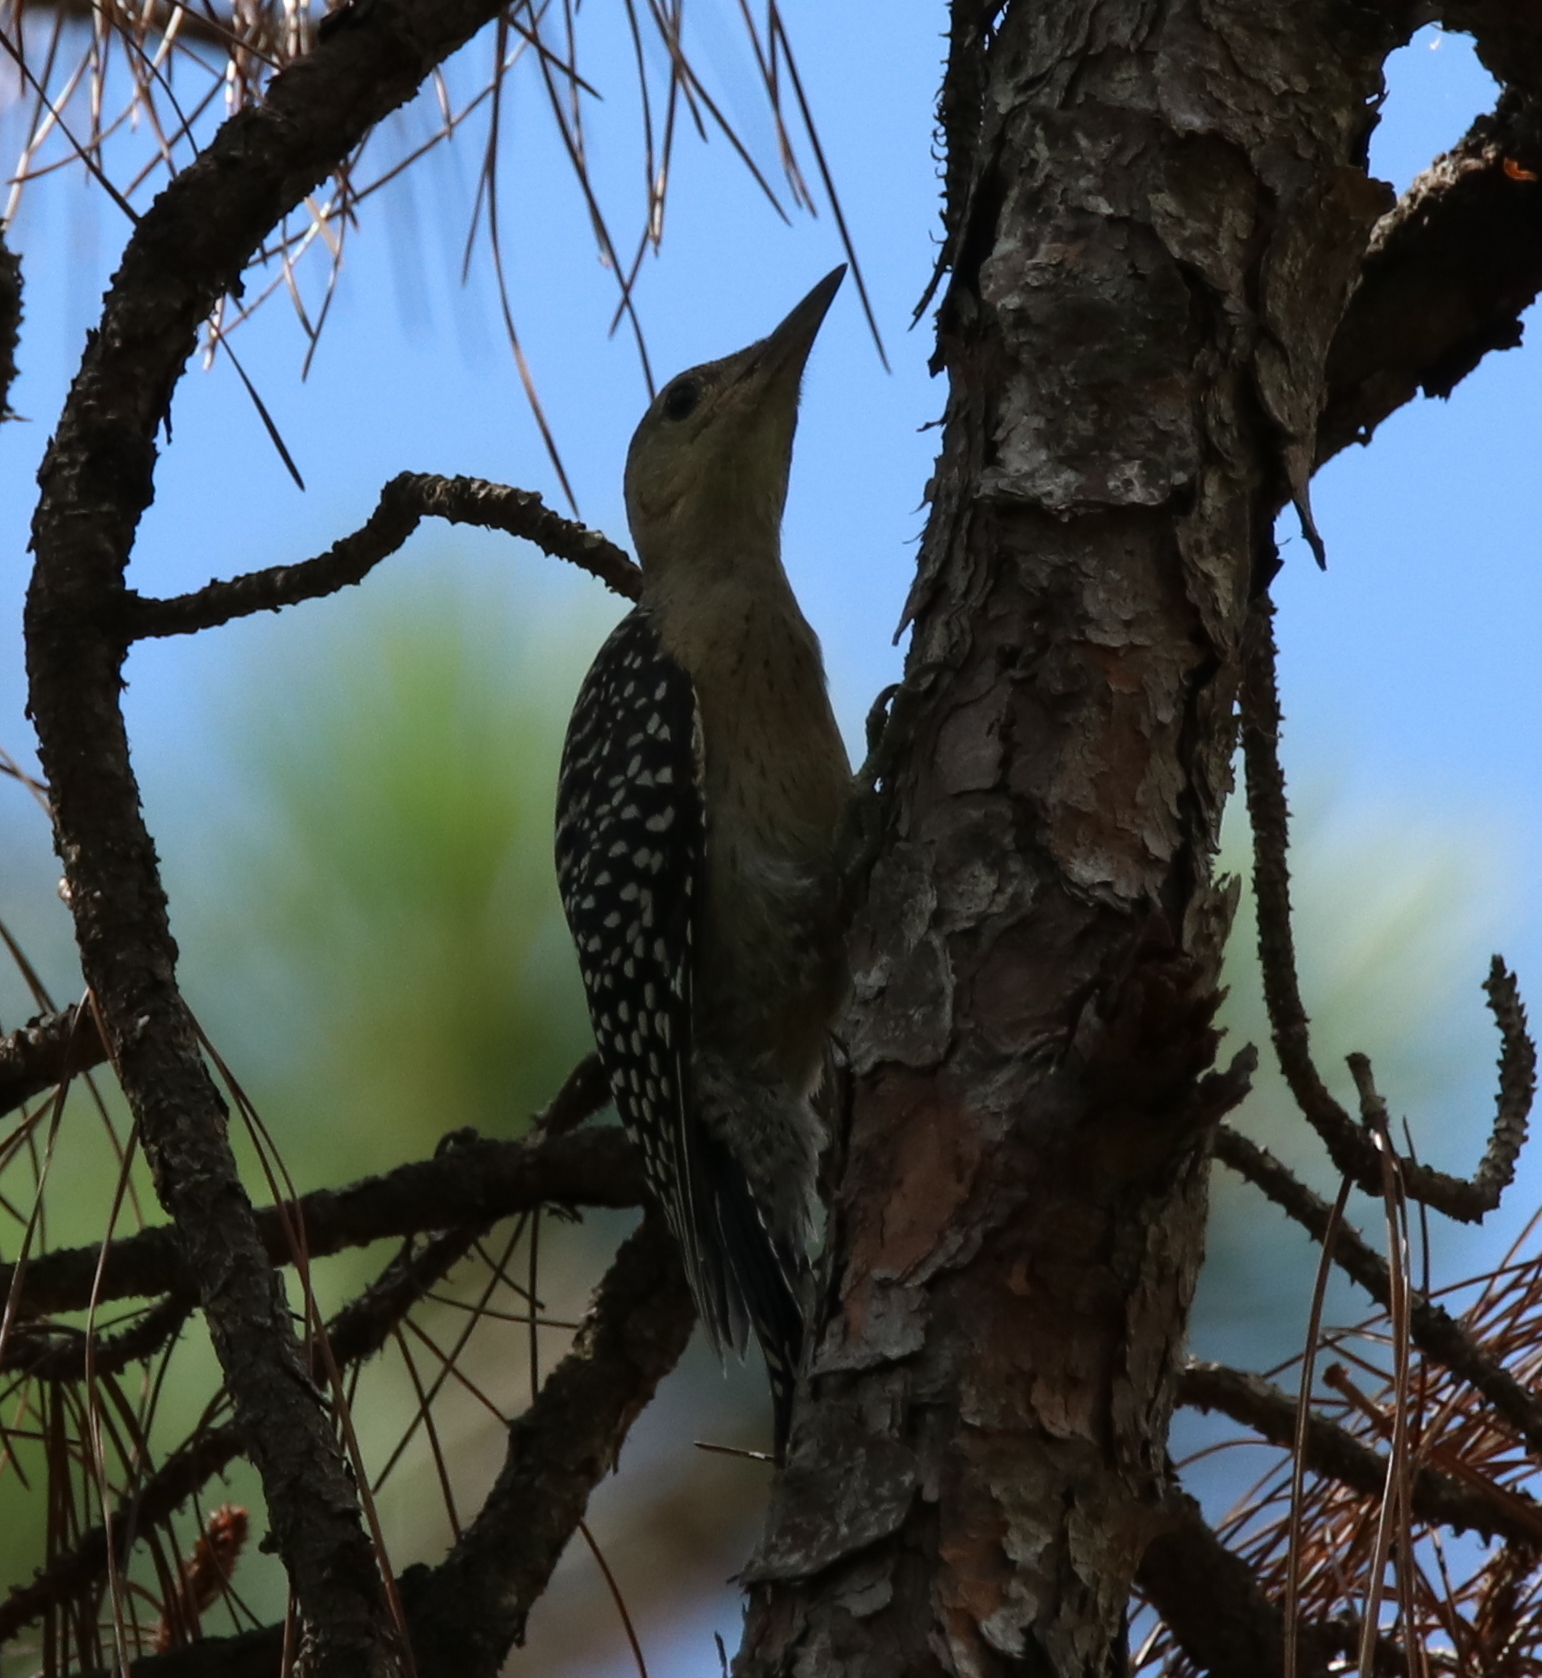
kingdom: Animalia
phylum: Chordata
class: Aves
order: Piciformes
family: Picidae
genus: Melanerpes
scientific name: Melanerpes carolinus
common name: Red-bellied woodpecker
